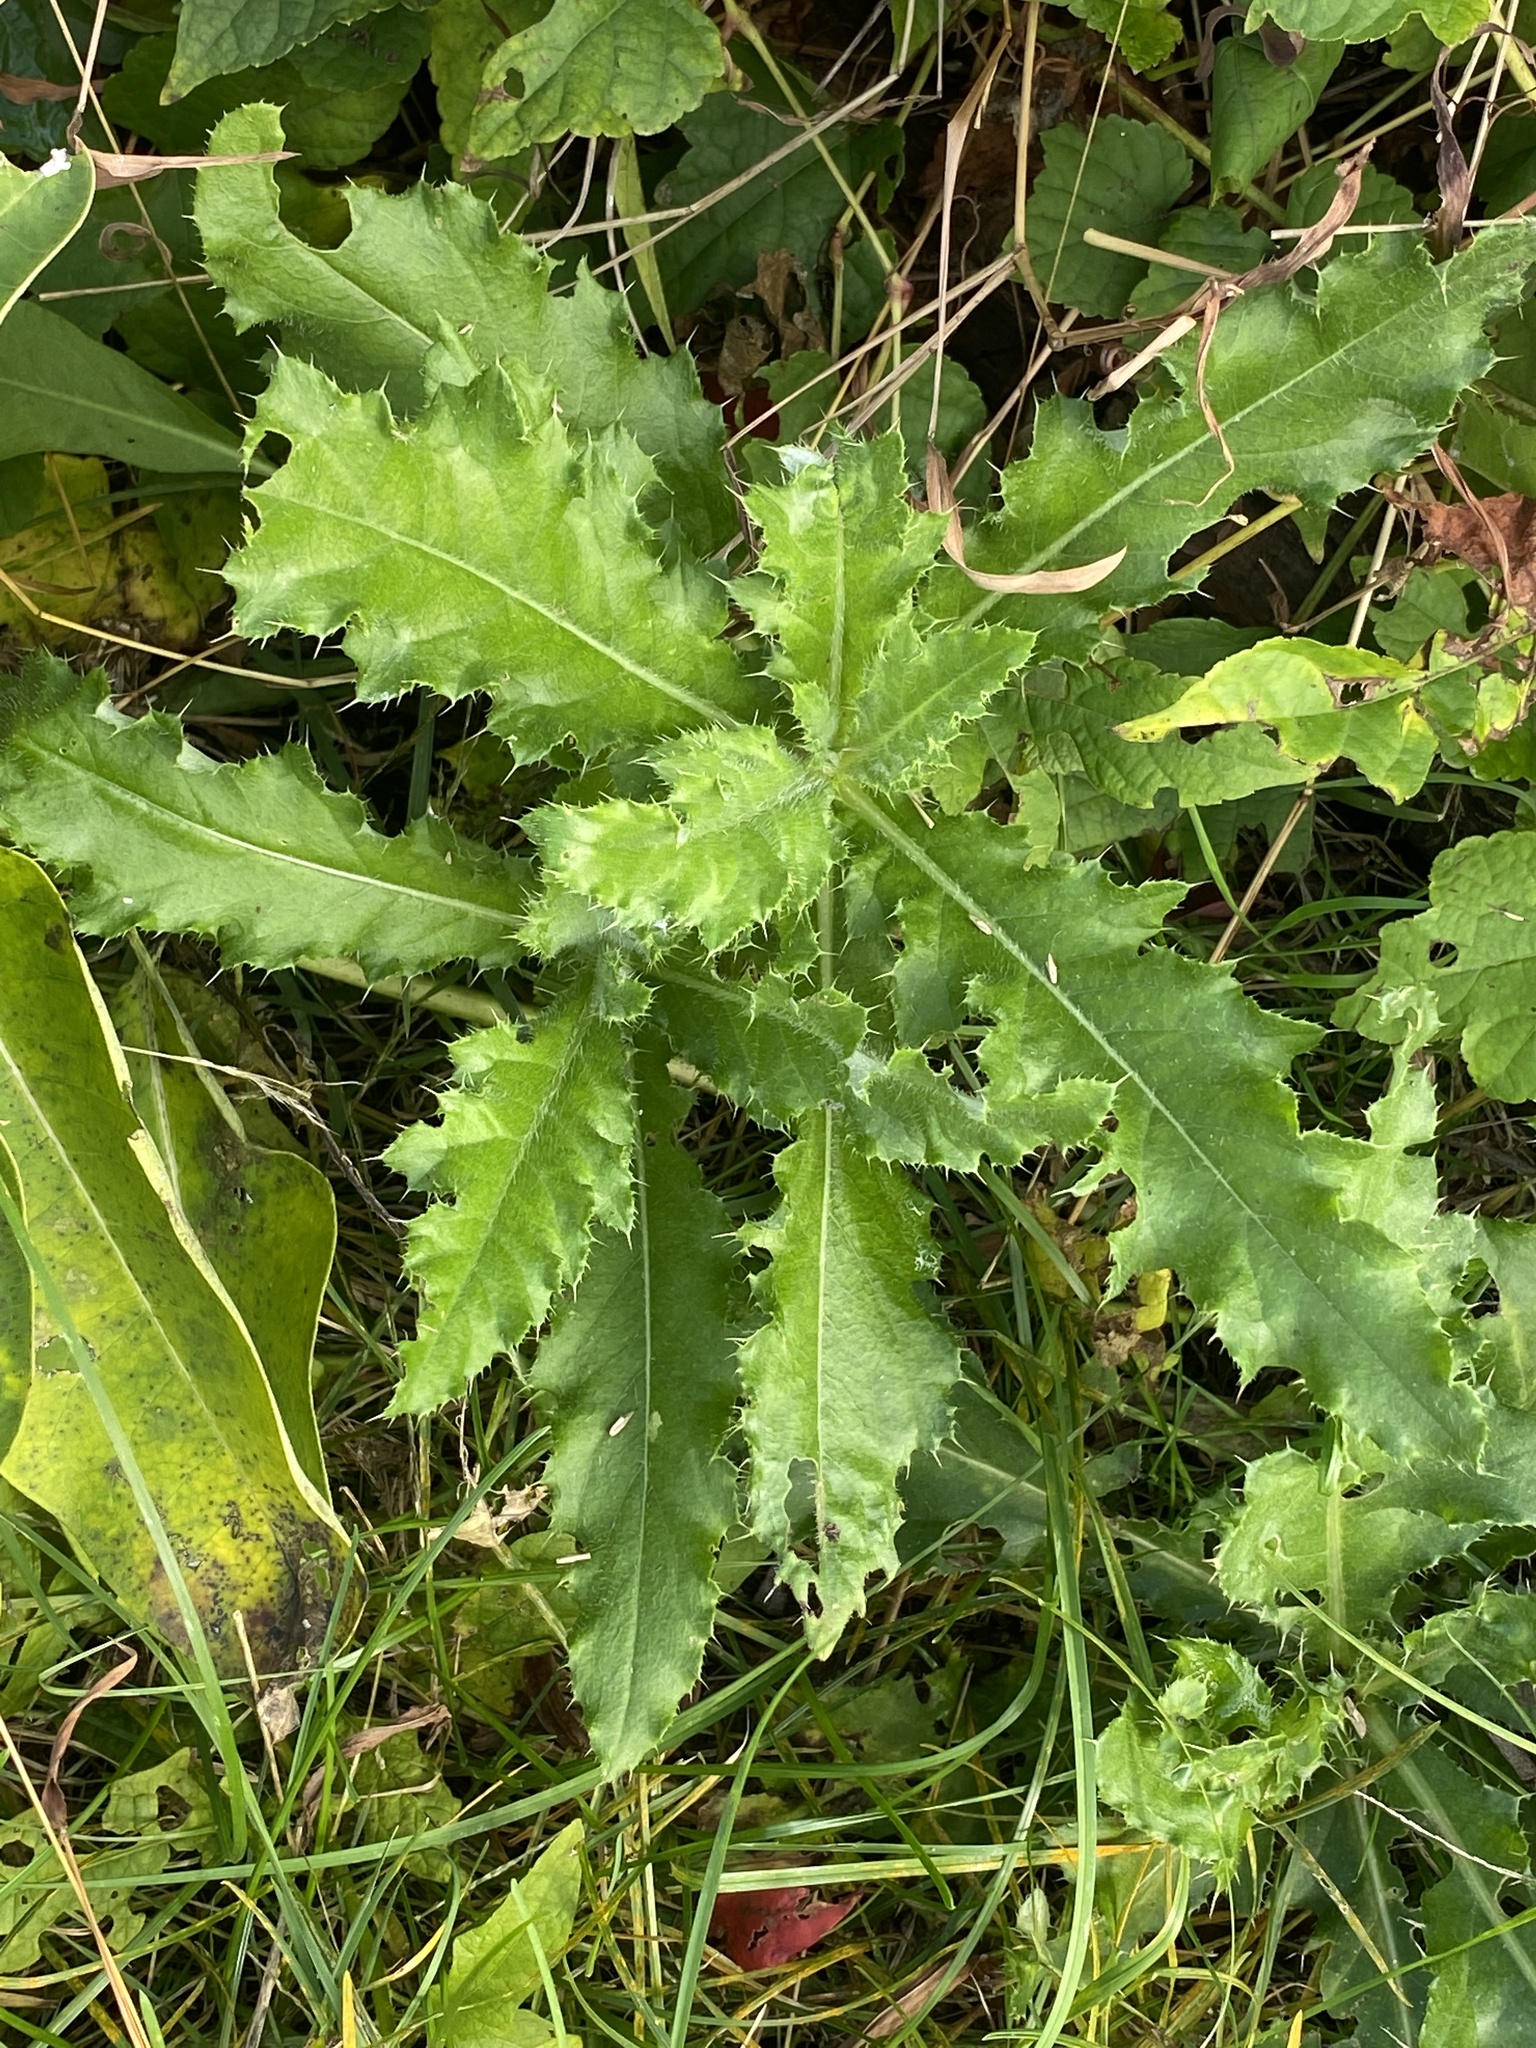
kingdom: Plantae
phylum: Tracheophyta
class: Magnoliopsida
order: Asterales
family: Asteraceae
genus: Cirsium
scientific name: Cirsium arvense
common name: Creeping thistle
